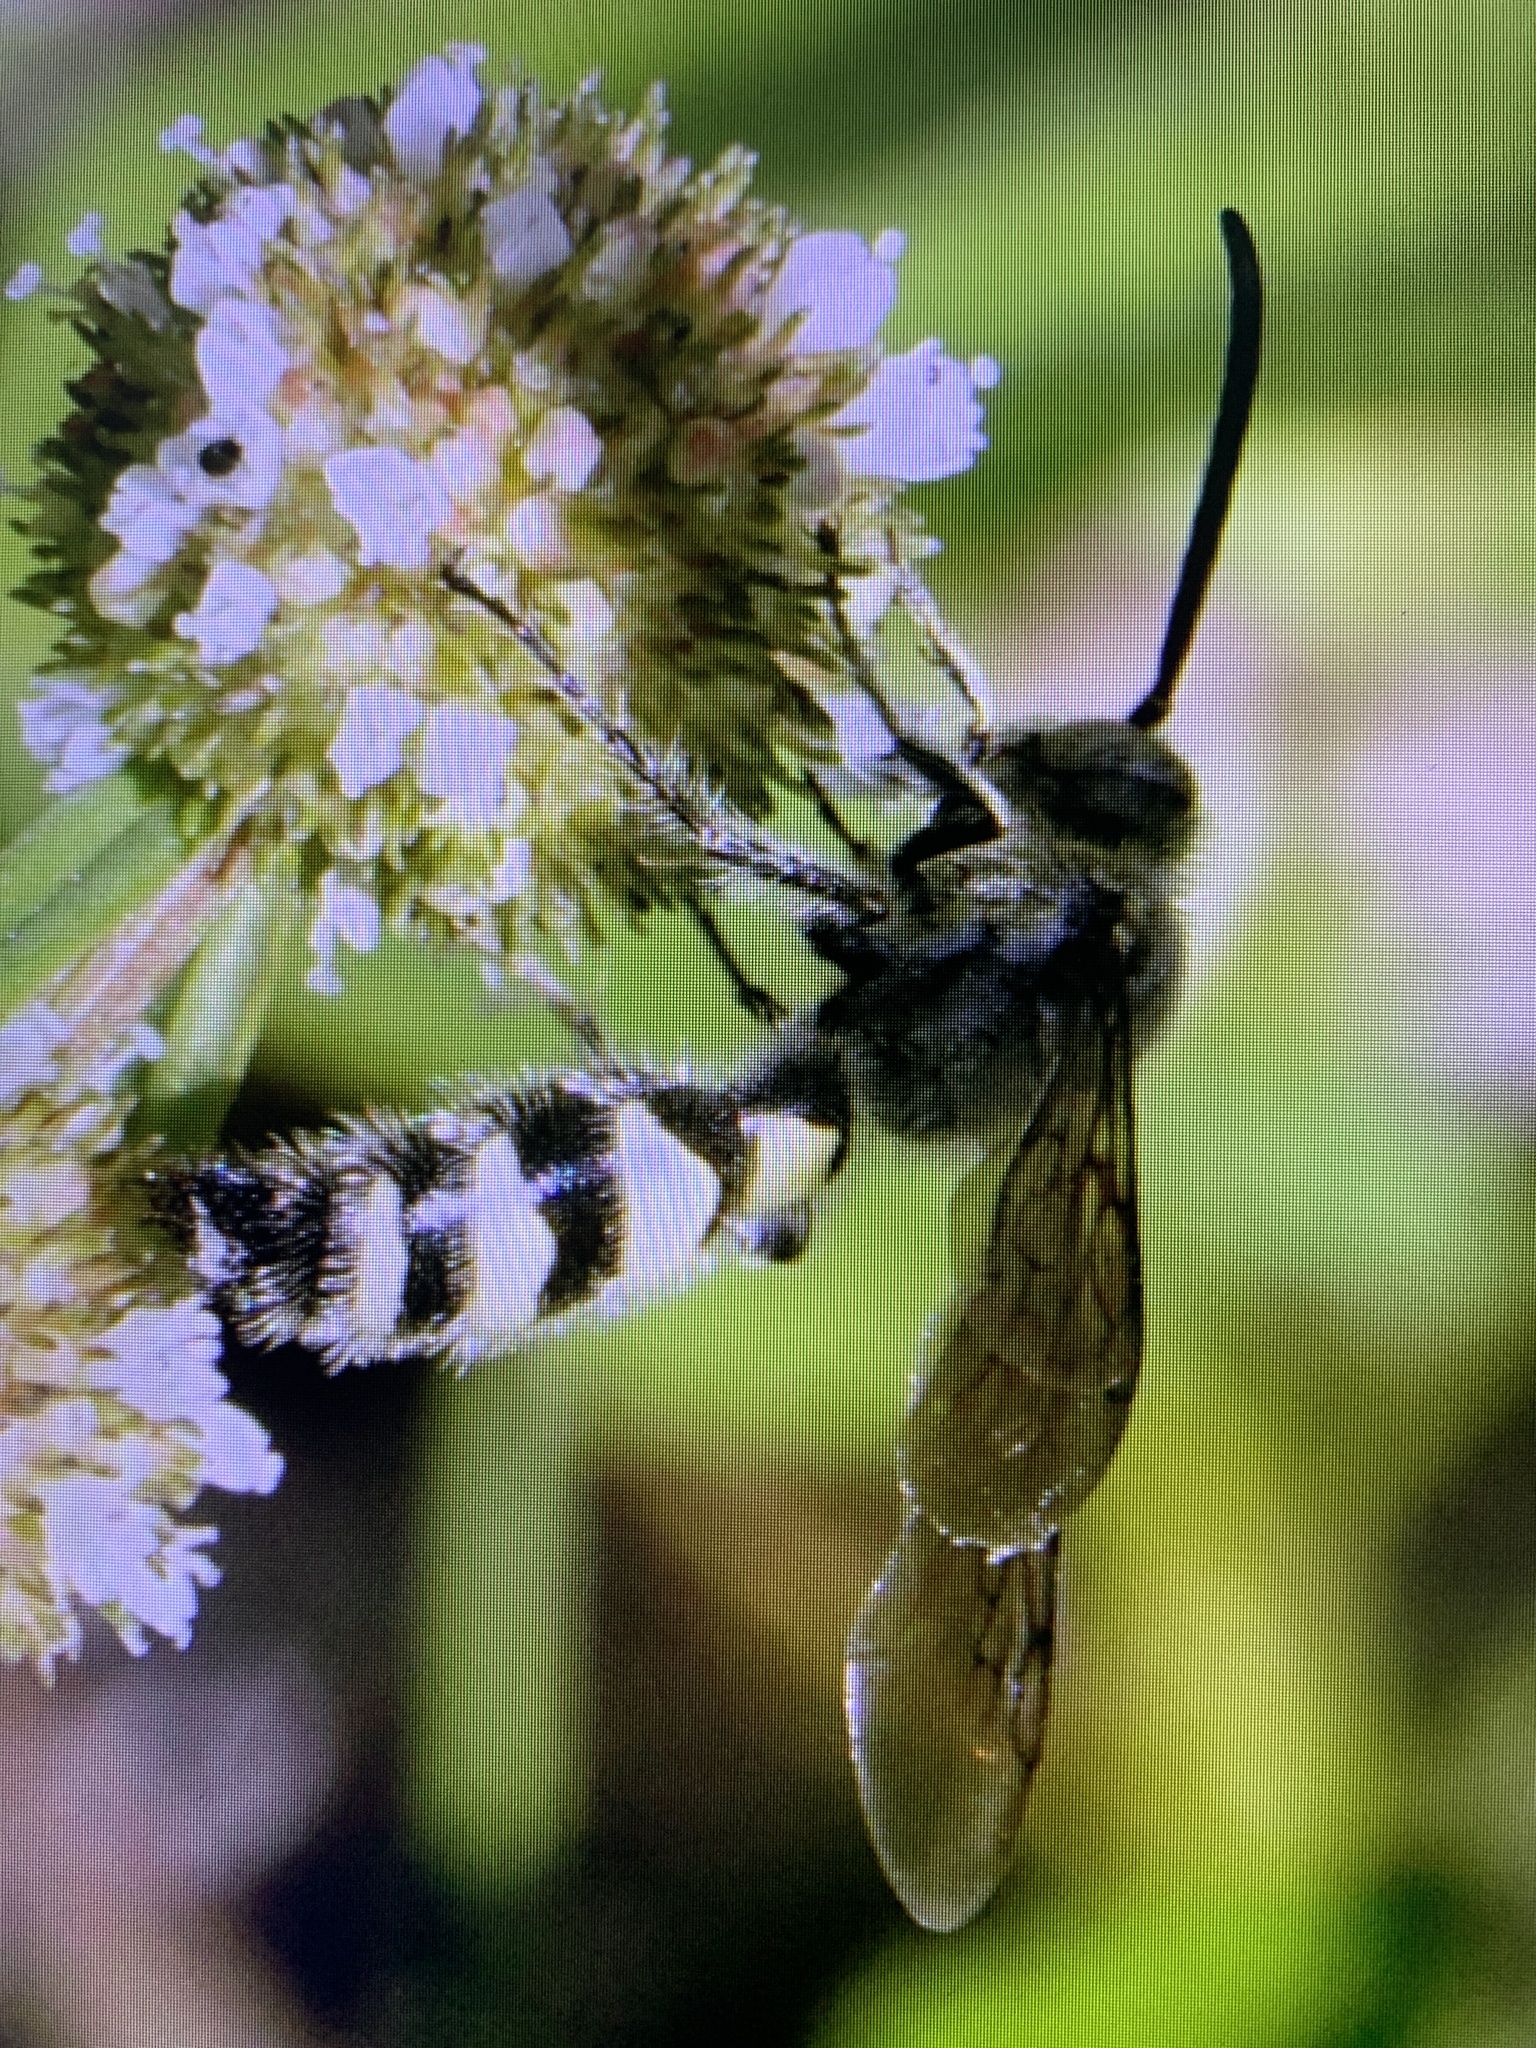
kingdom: Animalia
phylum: Arthropoda
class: Insecta
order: Hymenoptera
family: Scoliidae
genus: Dielis
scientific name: Dielis
